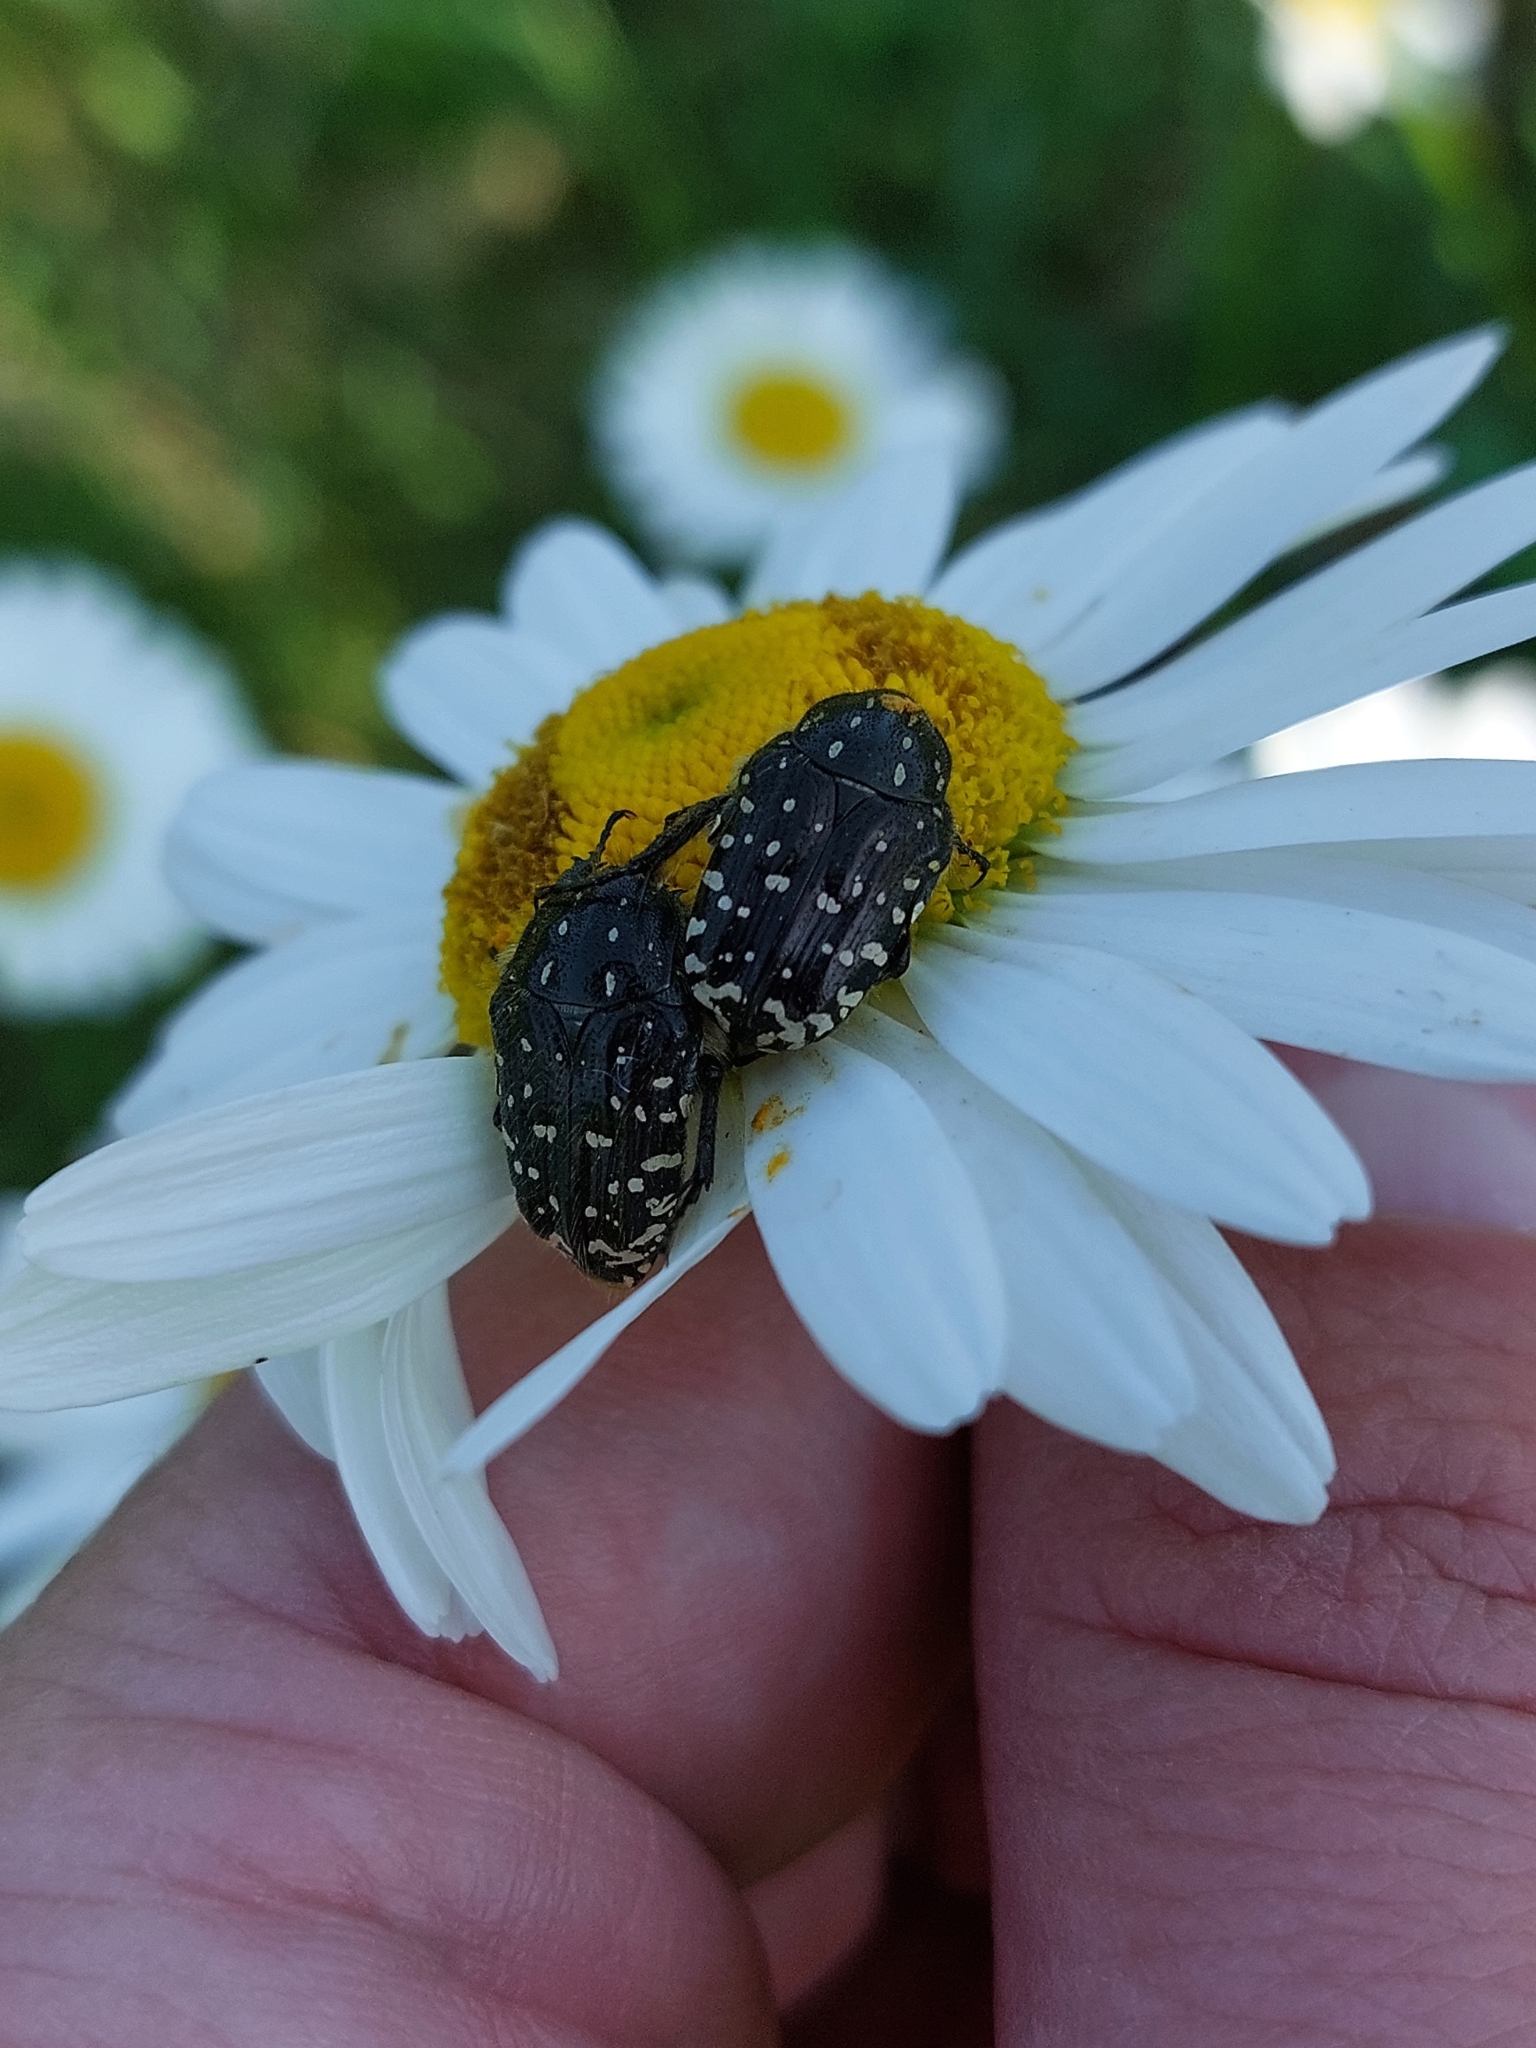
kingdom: Animalia
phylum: Arthropoda
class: Insecta
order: Coleoptera
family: Scarabaeidae
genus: Oxythyrea
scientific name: Oxythyrea funesta
